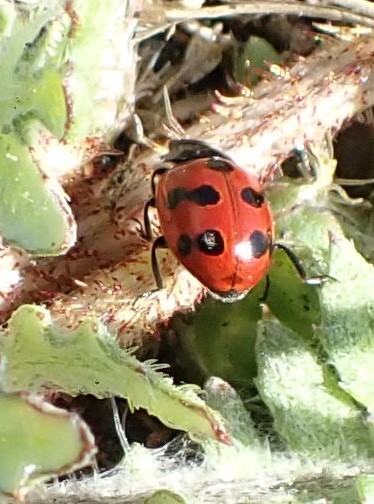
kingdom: Animalia
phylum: Arthropoda
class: Insecta
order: Coleoptera
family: Coccinellidae
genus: Coccinella
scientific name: Coccinella undecimpunctata
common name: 11-spot ladybird
